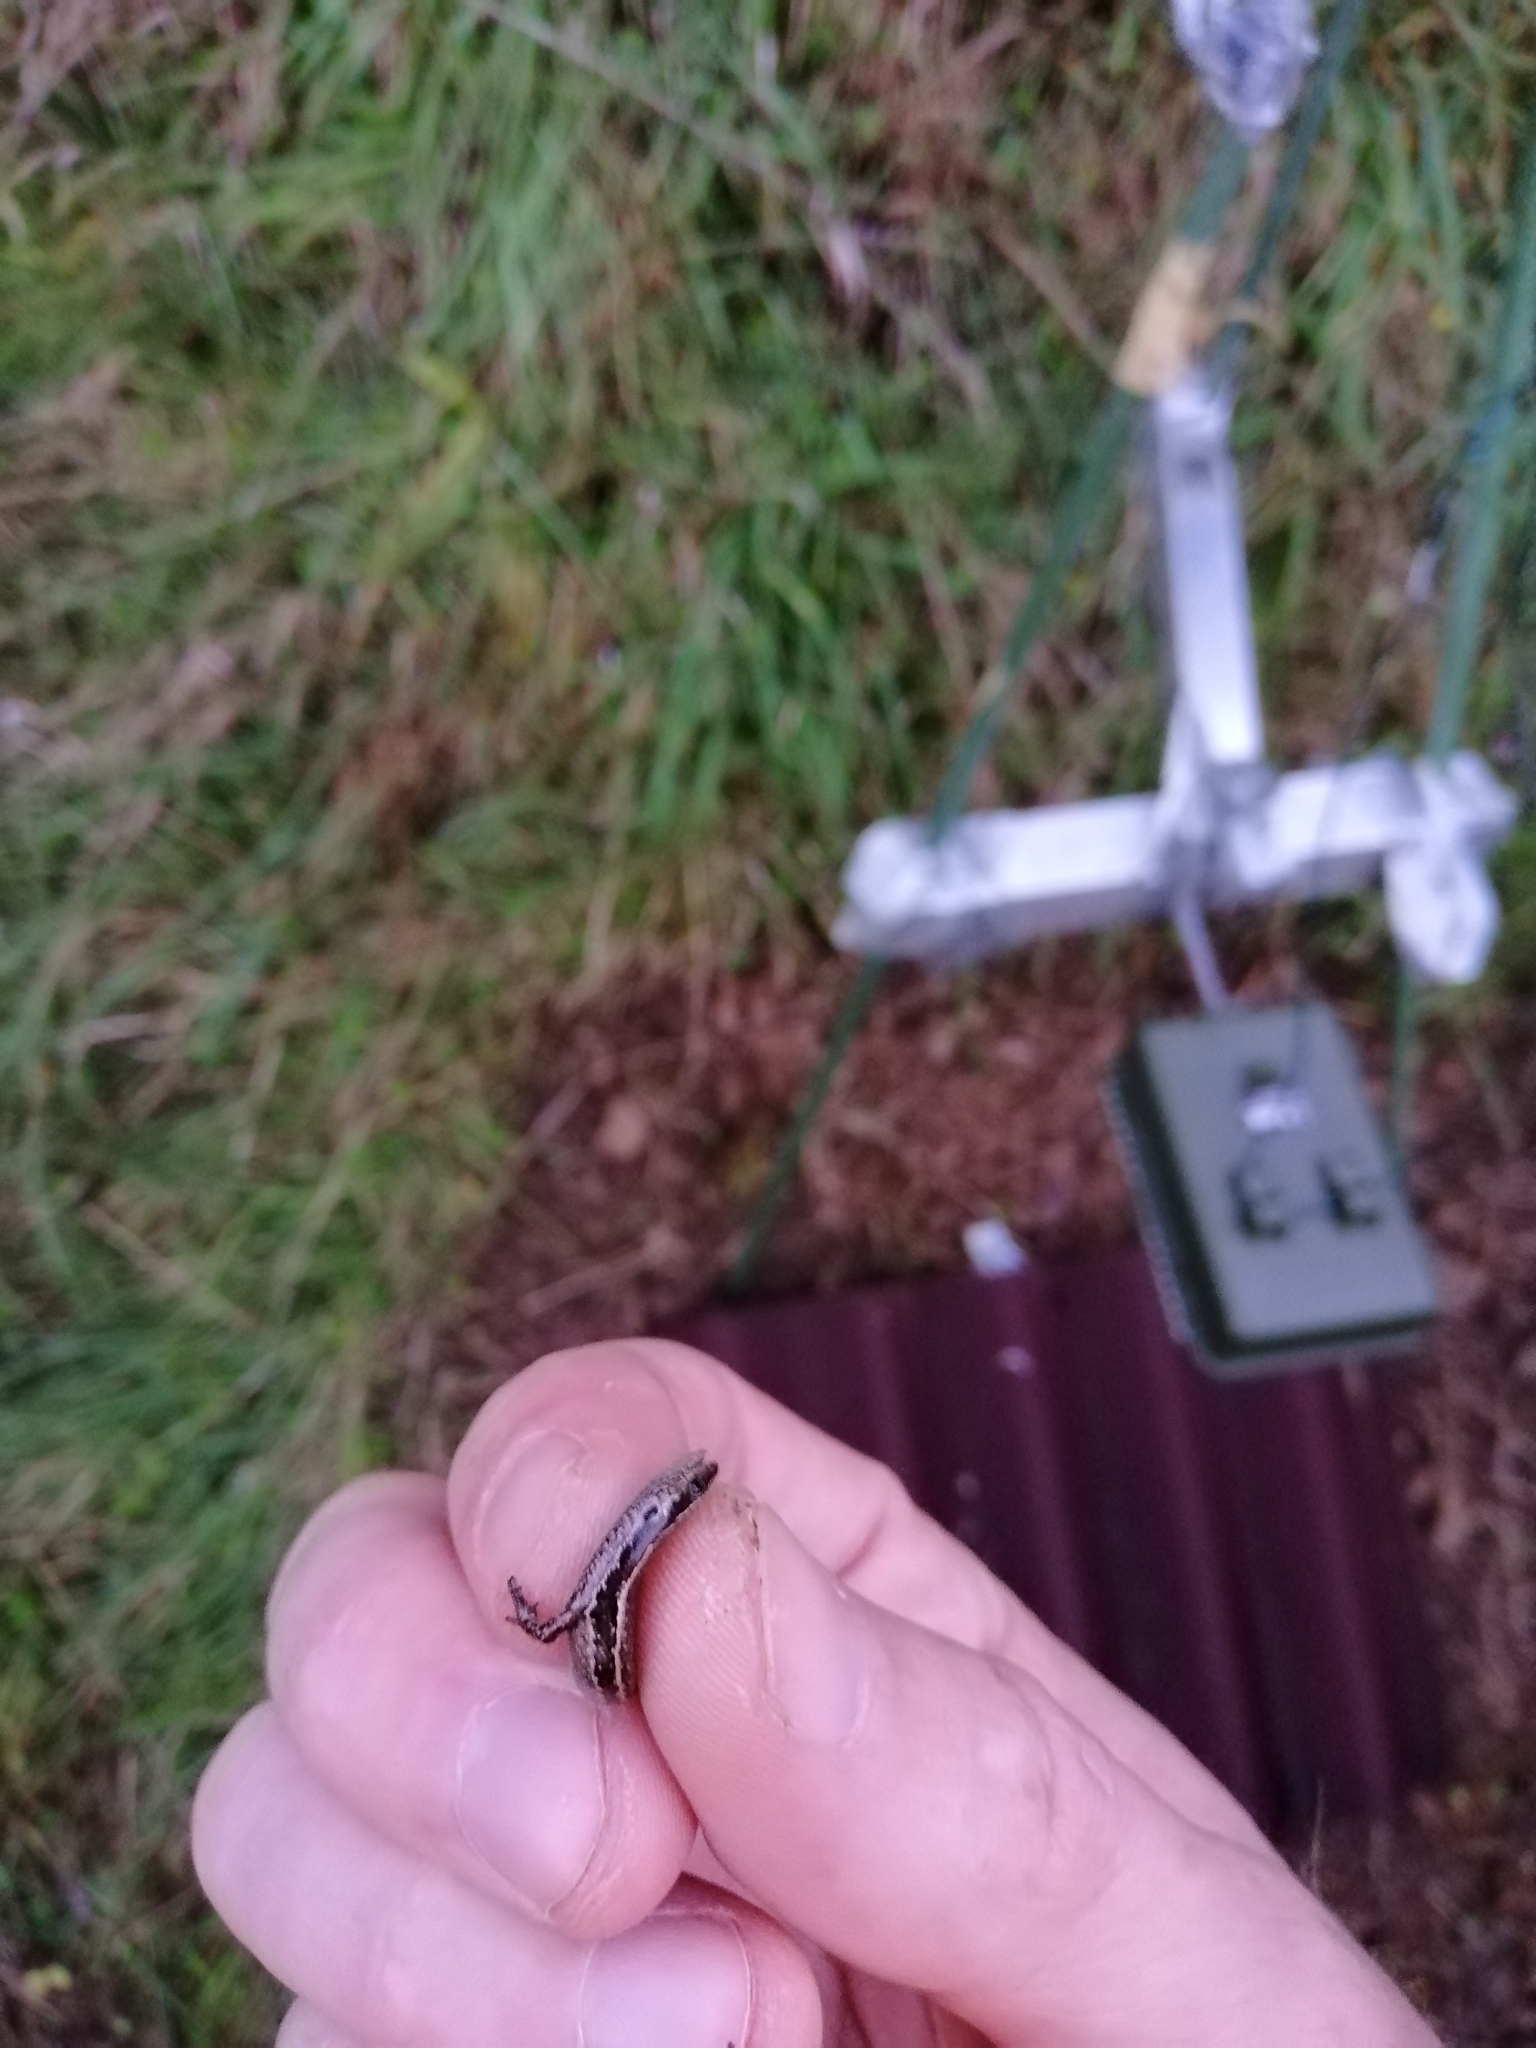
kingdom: Animalia
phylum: Chordata
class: Squamata
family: Scincidae
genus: Oligosoma
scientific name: Oligosoma polychroma
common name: Common new zealand skink
